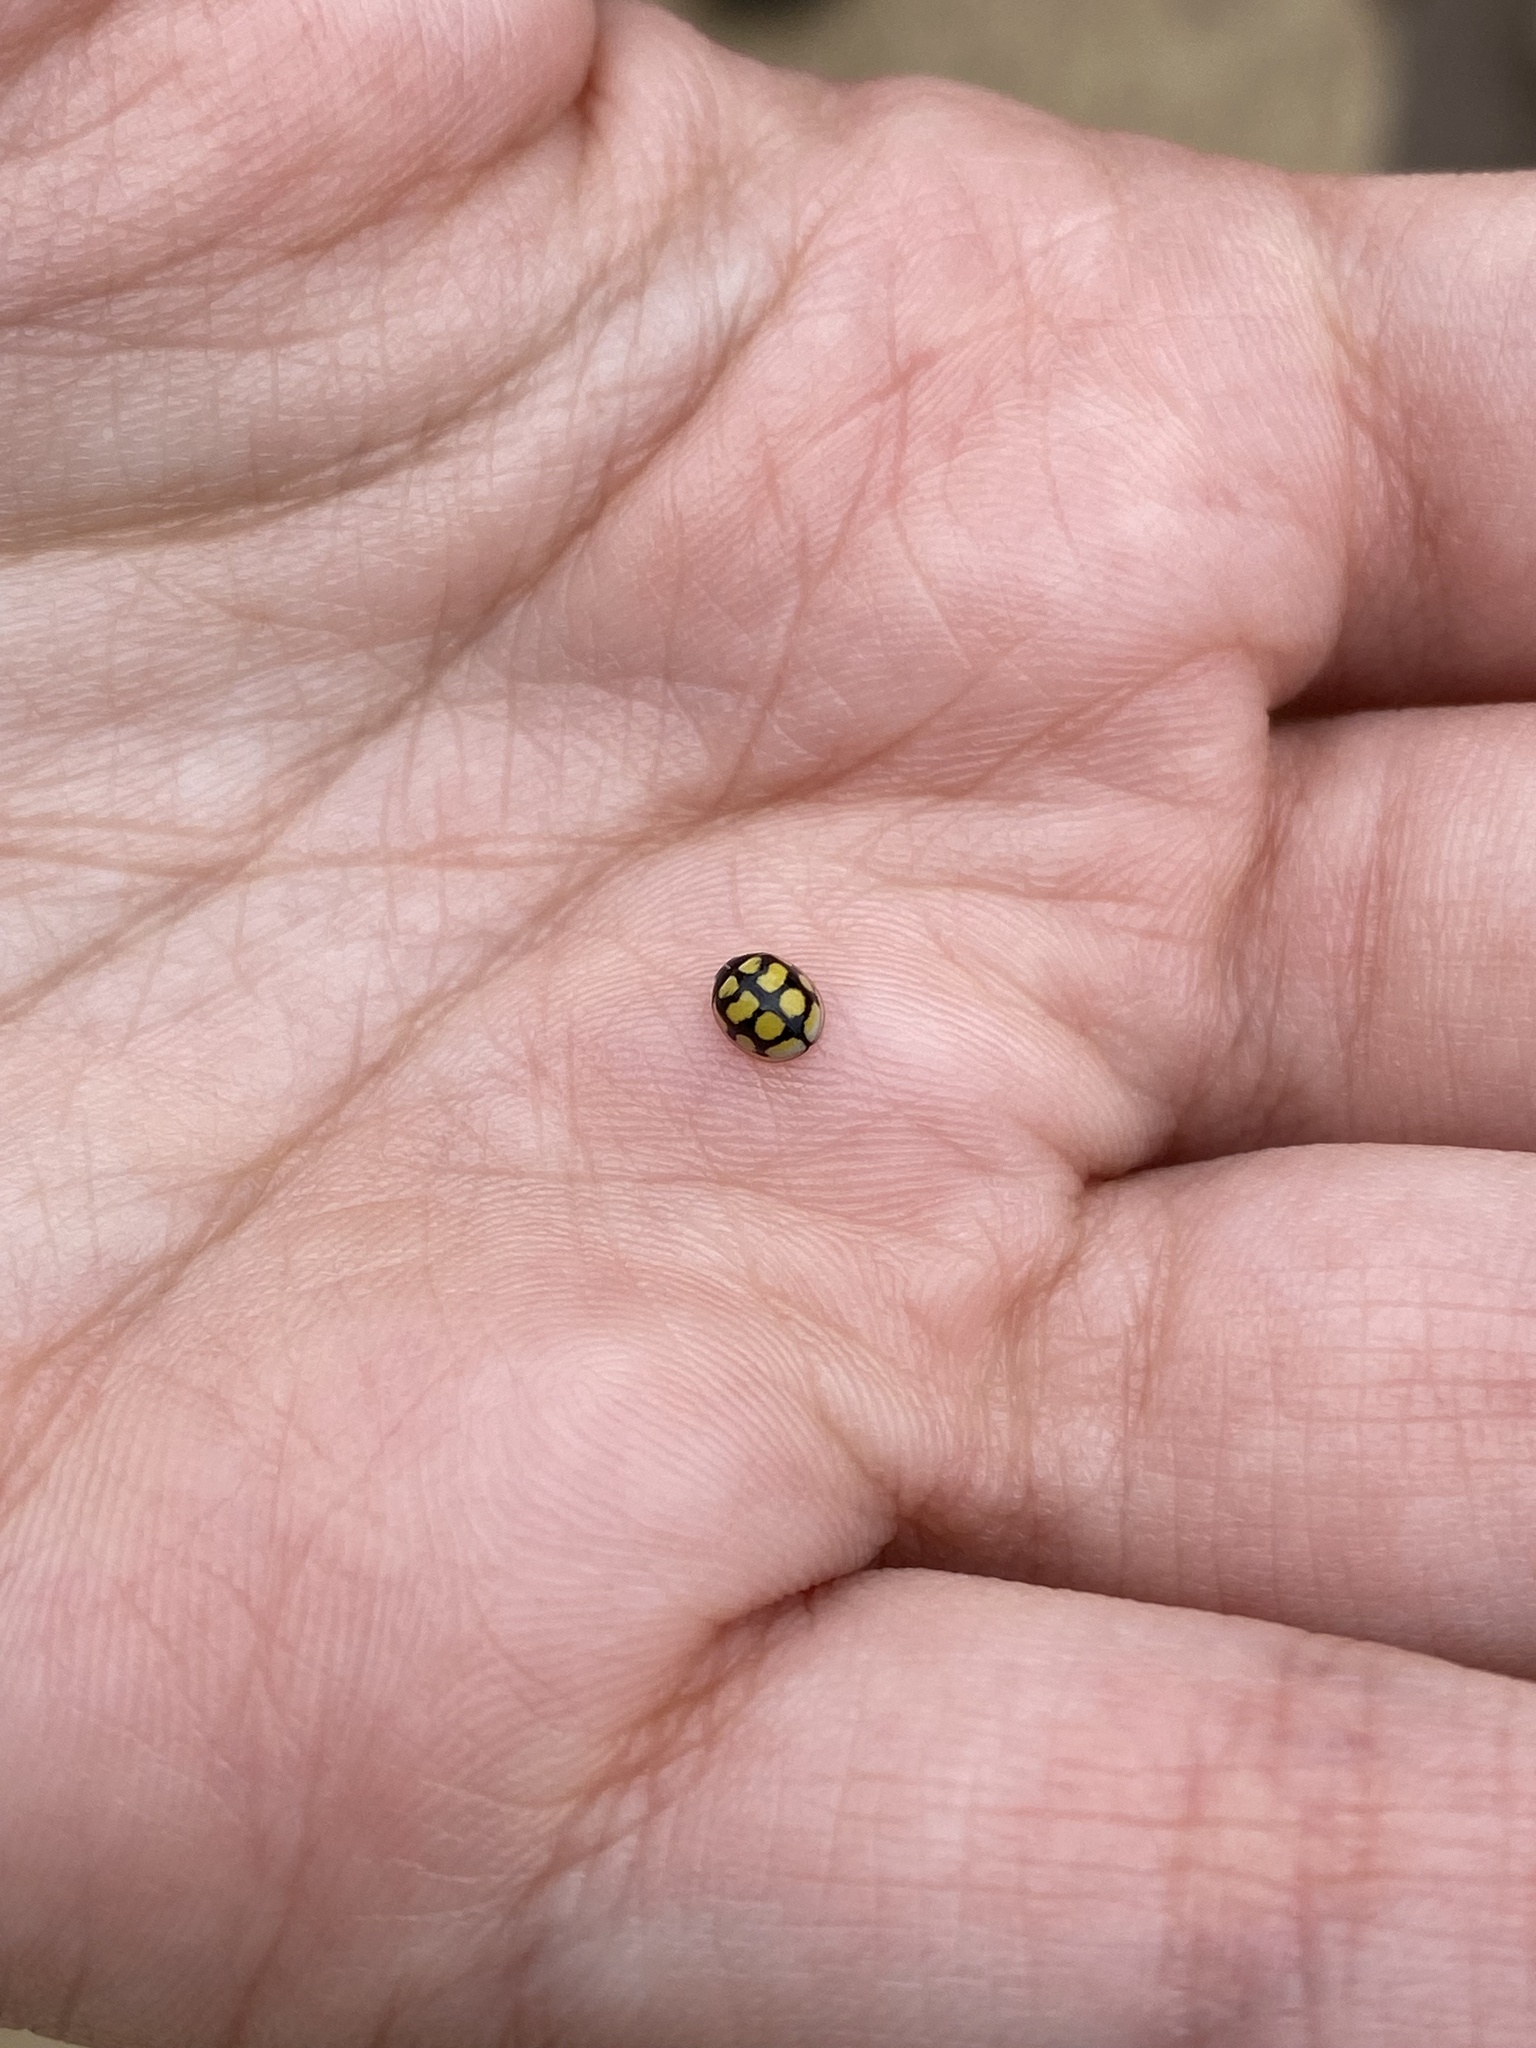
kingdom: Animalia
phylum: Arthropoda
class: Insecta
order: Coleoptera
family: Coccinellidae
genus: Oenopia
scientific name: Oenopia lyncea
